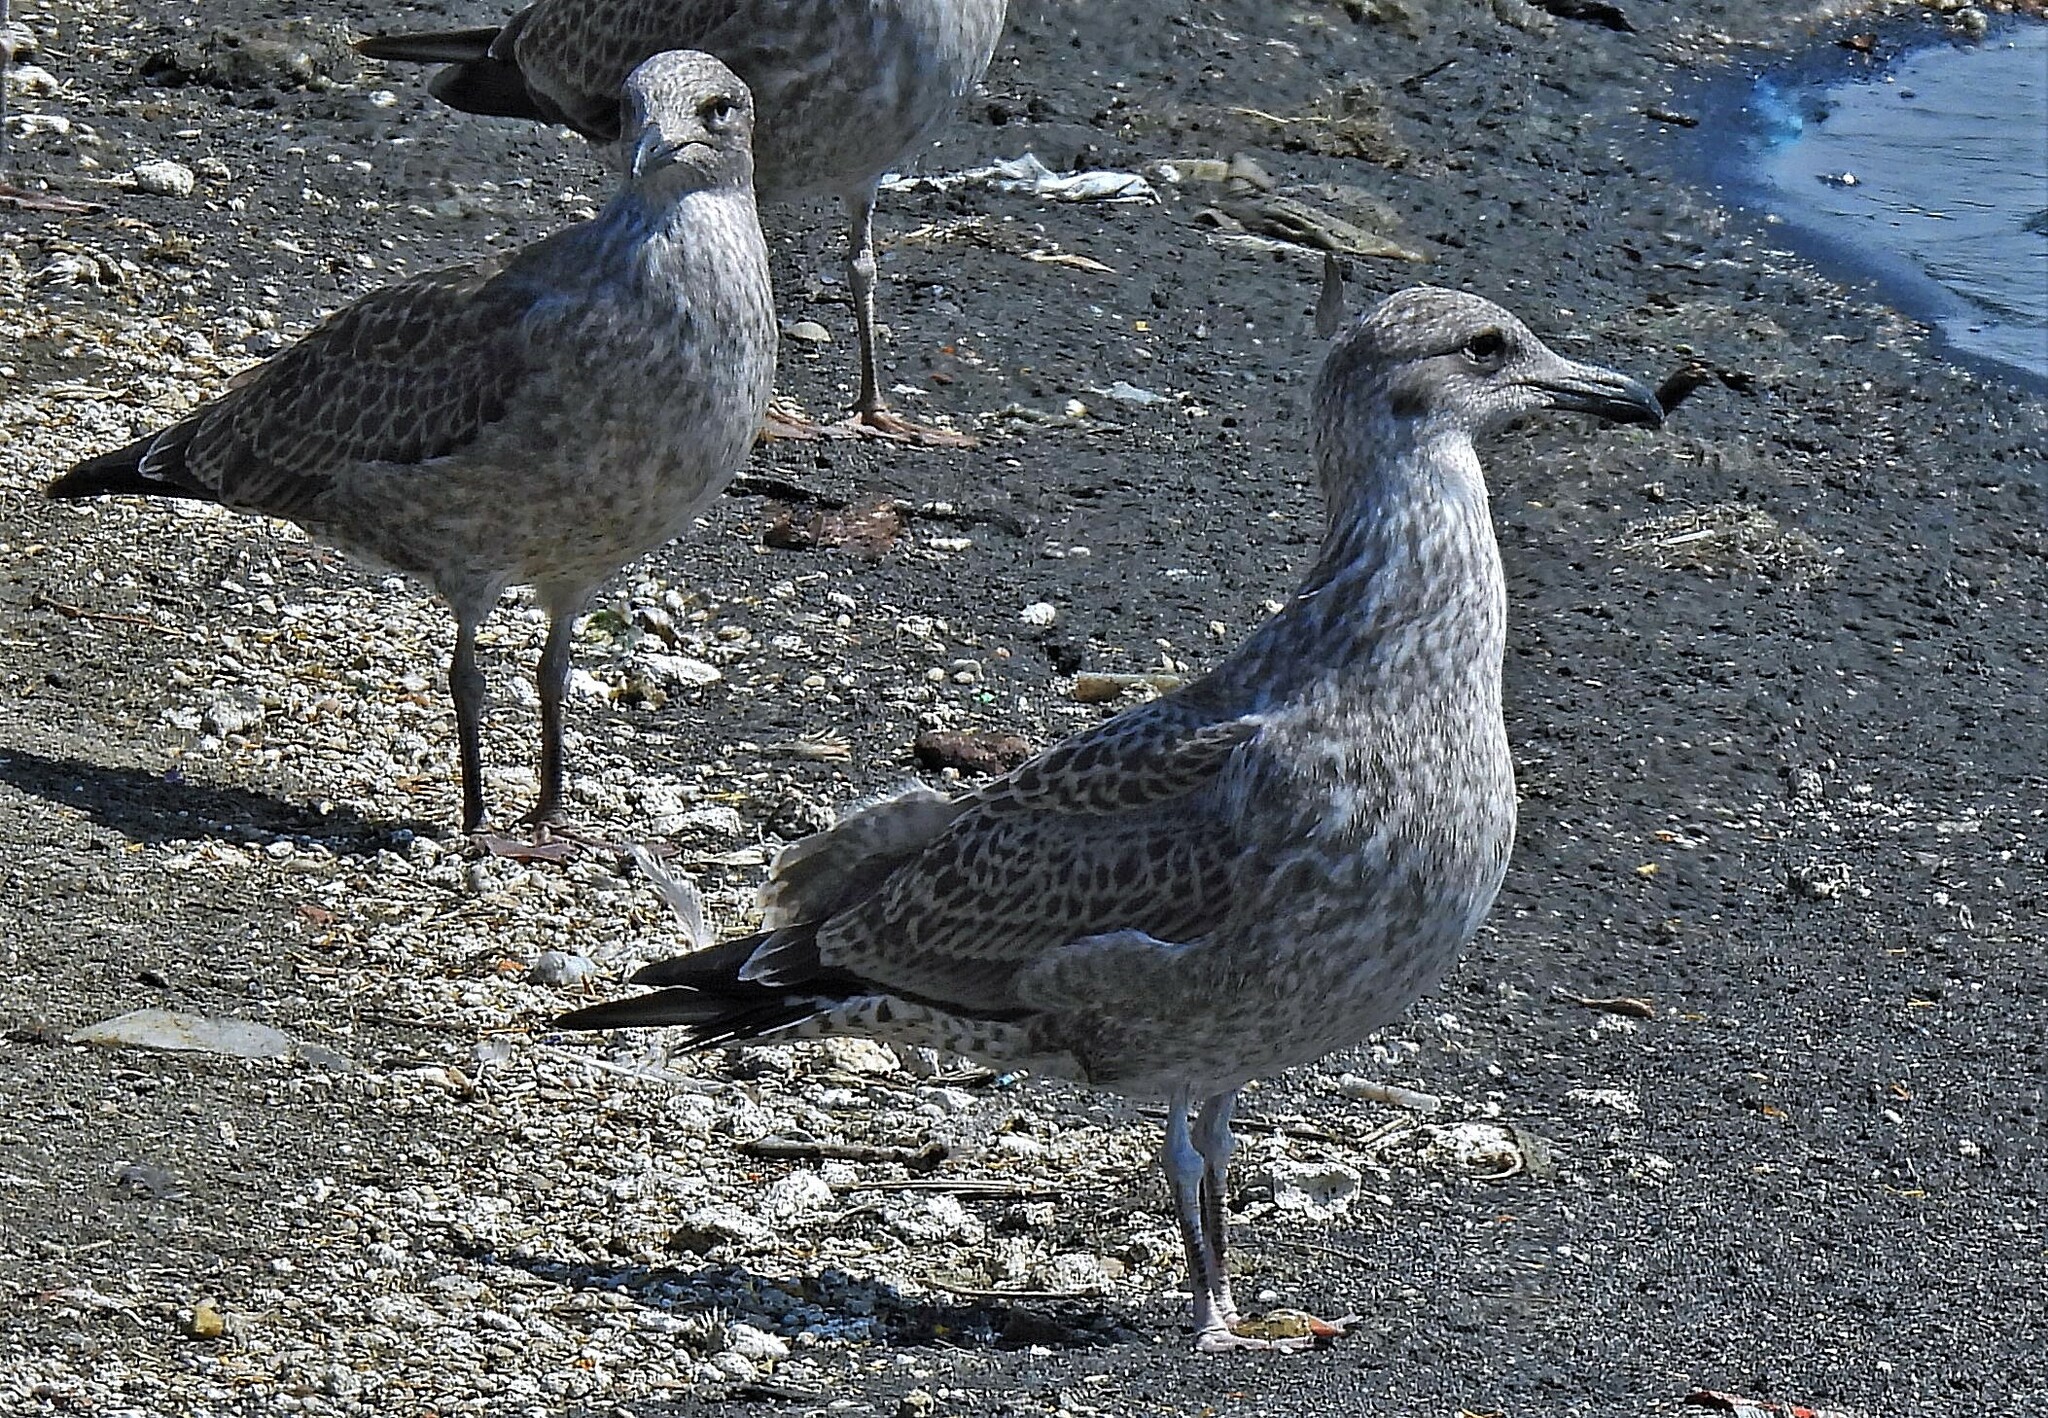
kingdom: Animalia
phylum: Chordata
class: Aves
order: Charadriiformes
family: Laridae
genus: Larus
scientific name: Larus dominicanus
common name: Kelp gull
